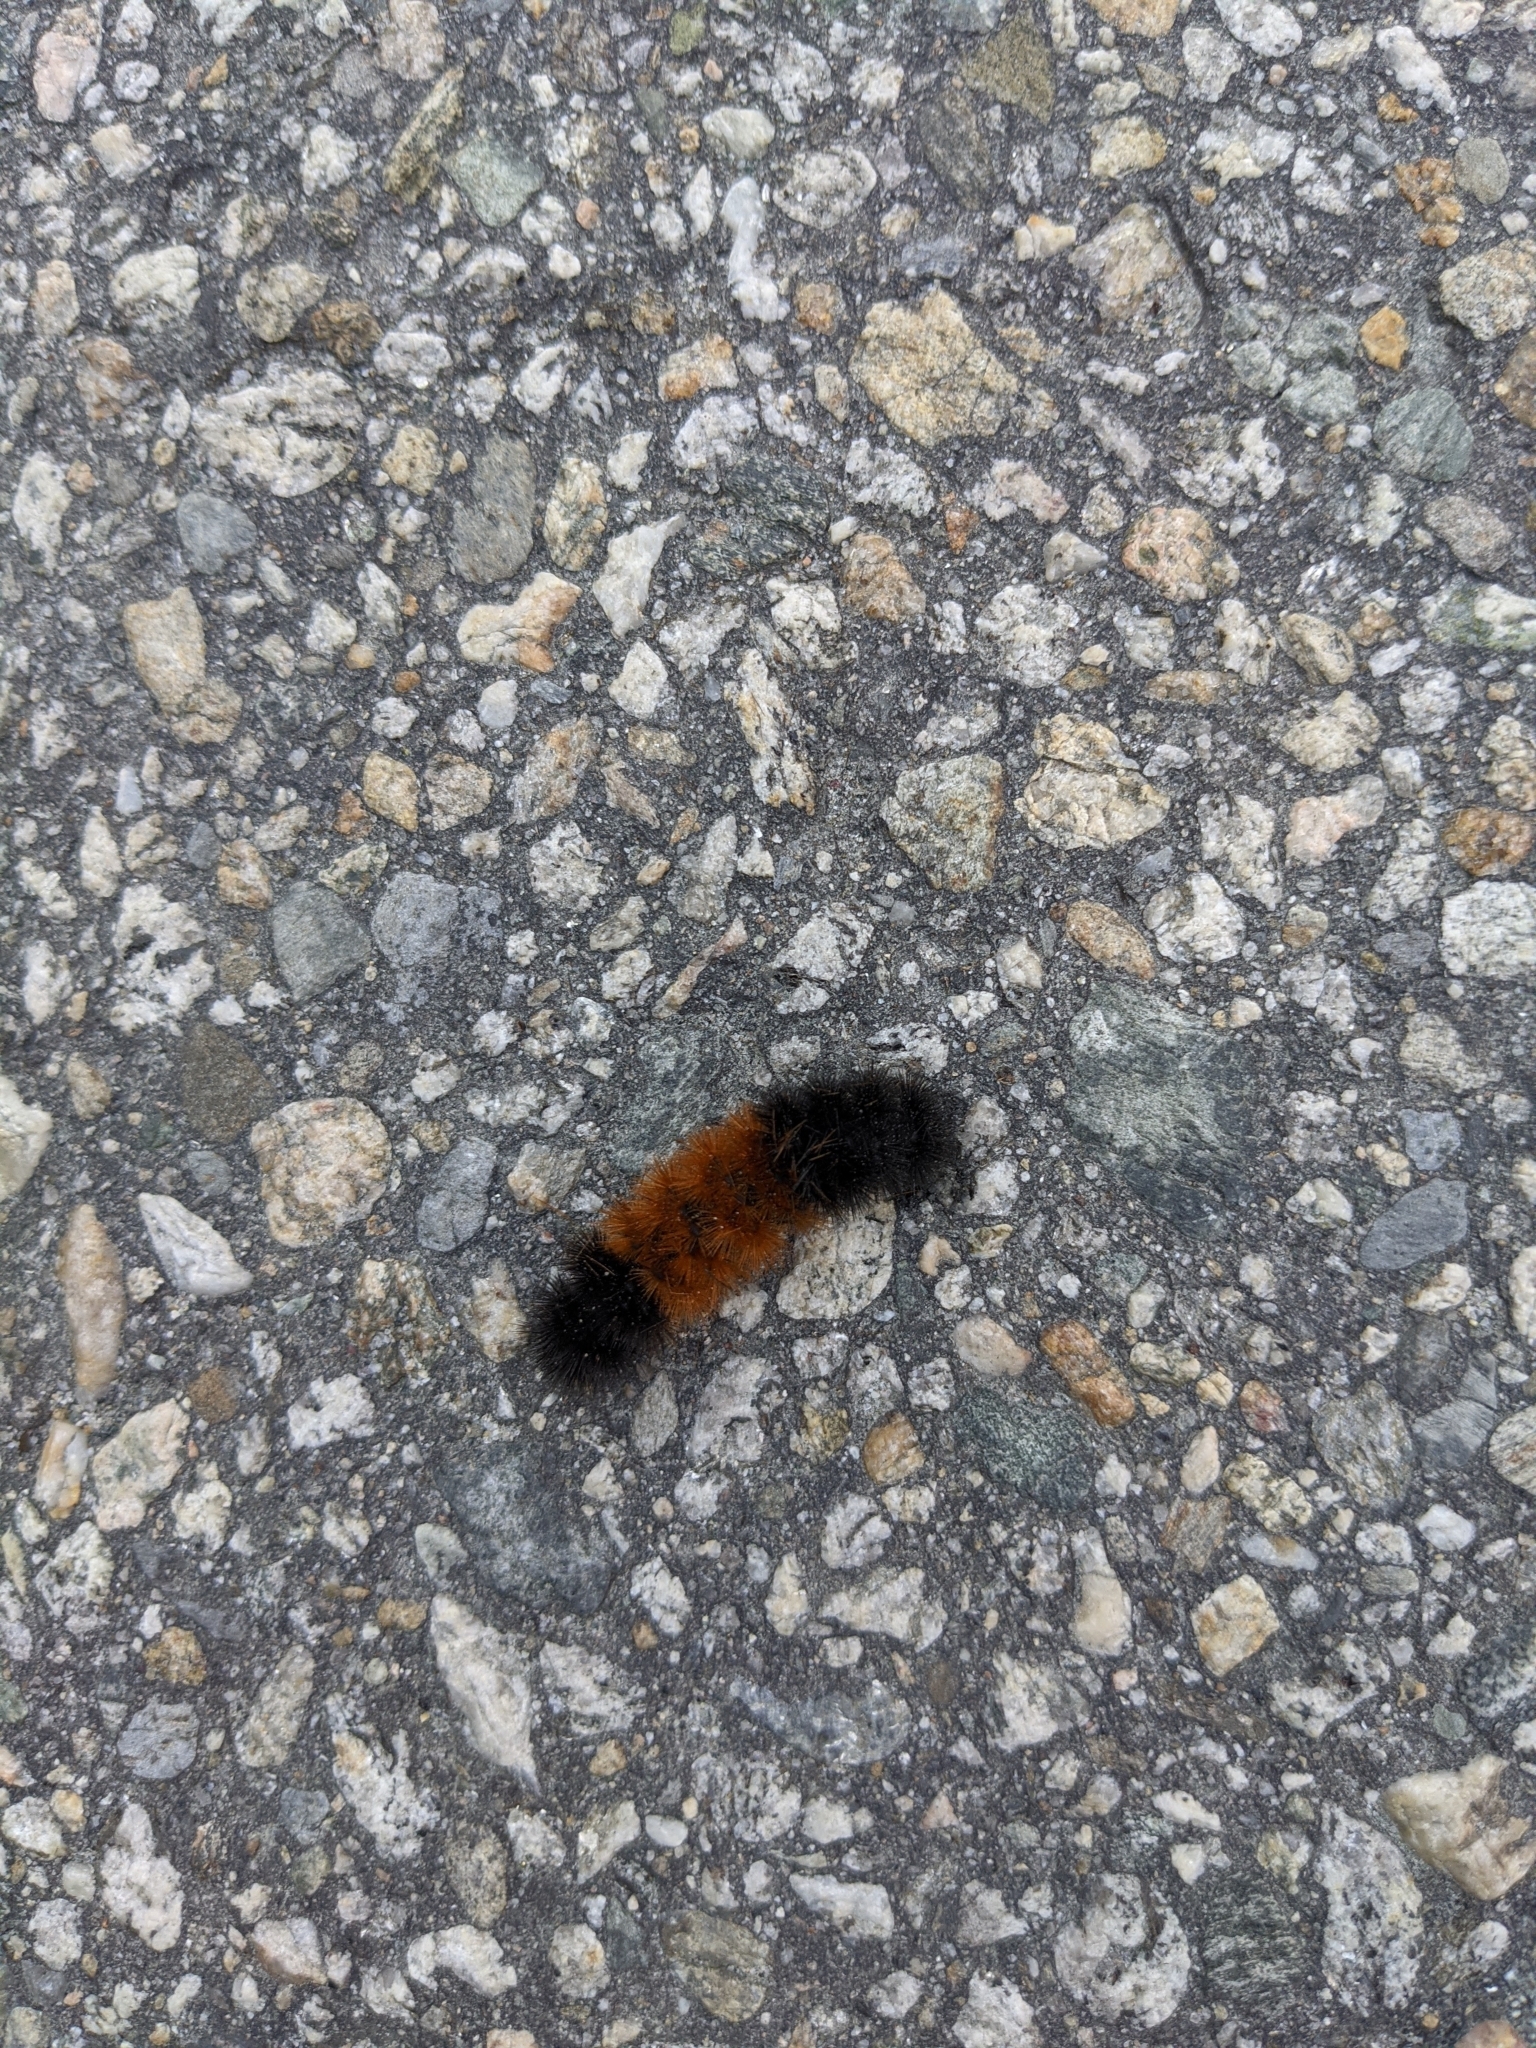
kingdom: Animalia
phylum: Arthropoda
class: Insecta
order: Lepidoptera
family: Erebidae
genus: Pyrrharctia
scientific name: Pyrrharctia isabella
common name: Isabella tiger moth
